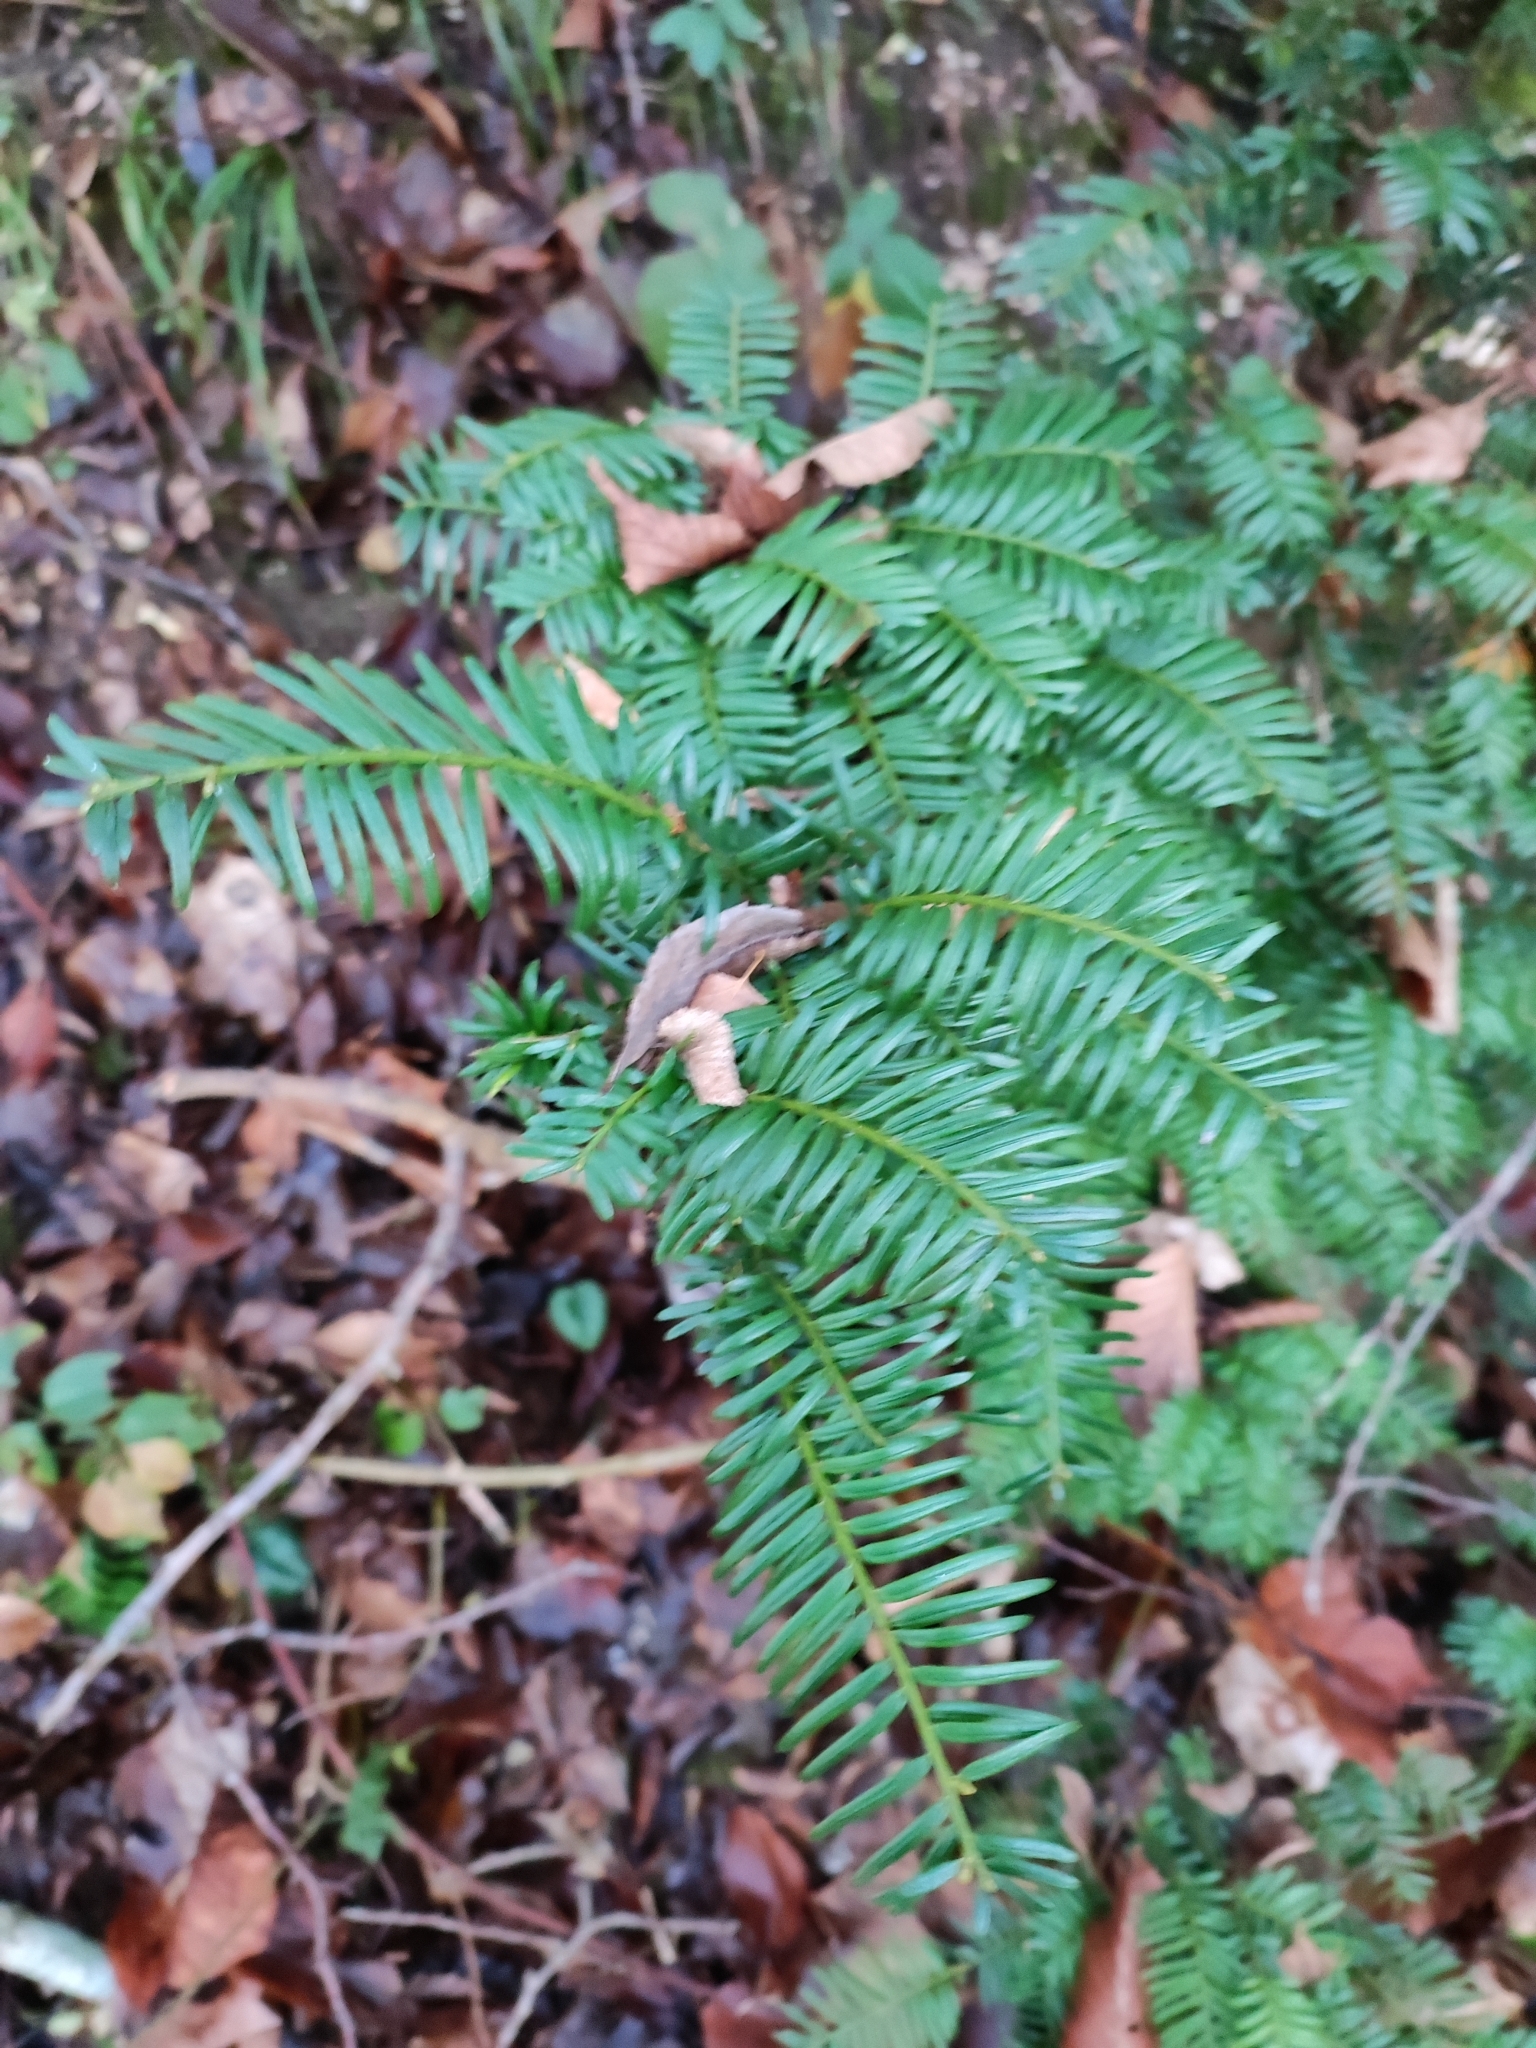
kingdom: Plantae
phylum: Tracheophyta
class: Pinopsida
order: Pinales
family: Taxaceae
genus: Taxus
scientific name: Taxus baccata
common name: Yew
